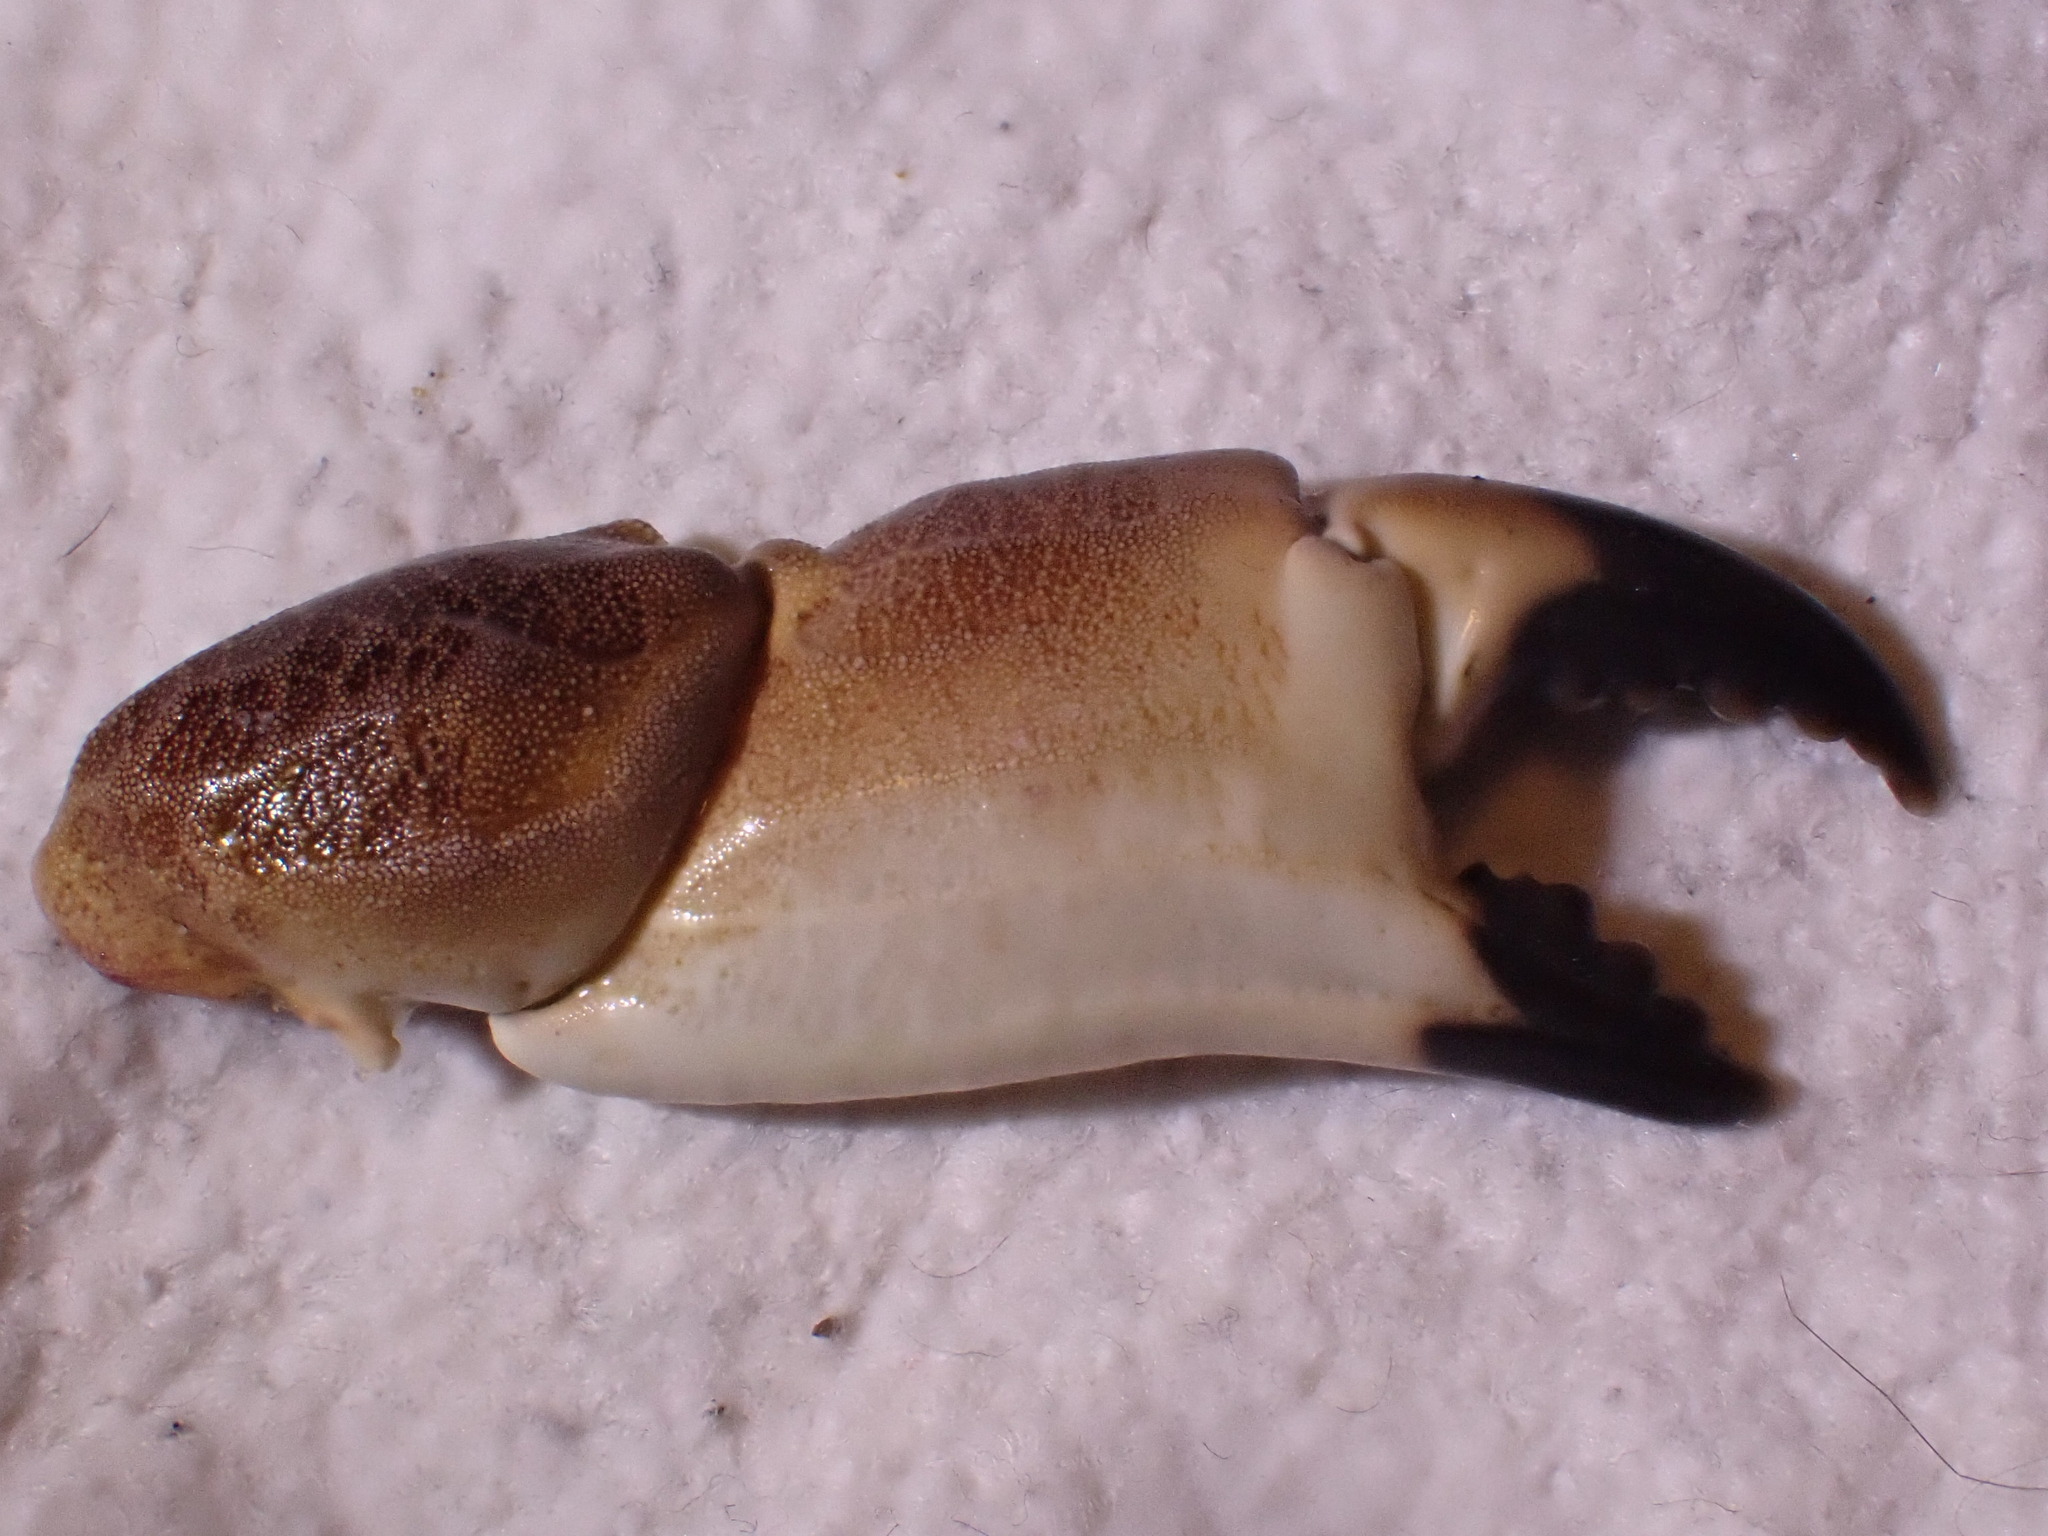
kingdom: Animalia
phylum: Arthropoda
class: Malacostraca
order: Decapoda
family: Cancridae
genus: Cancer
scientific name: Cancer pagurus
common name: Edible crab
